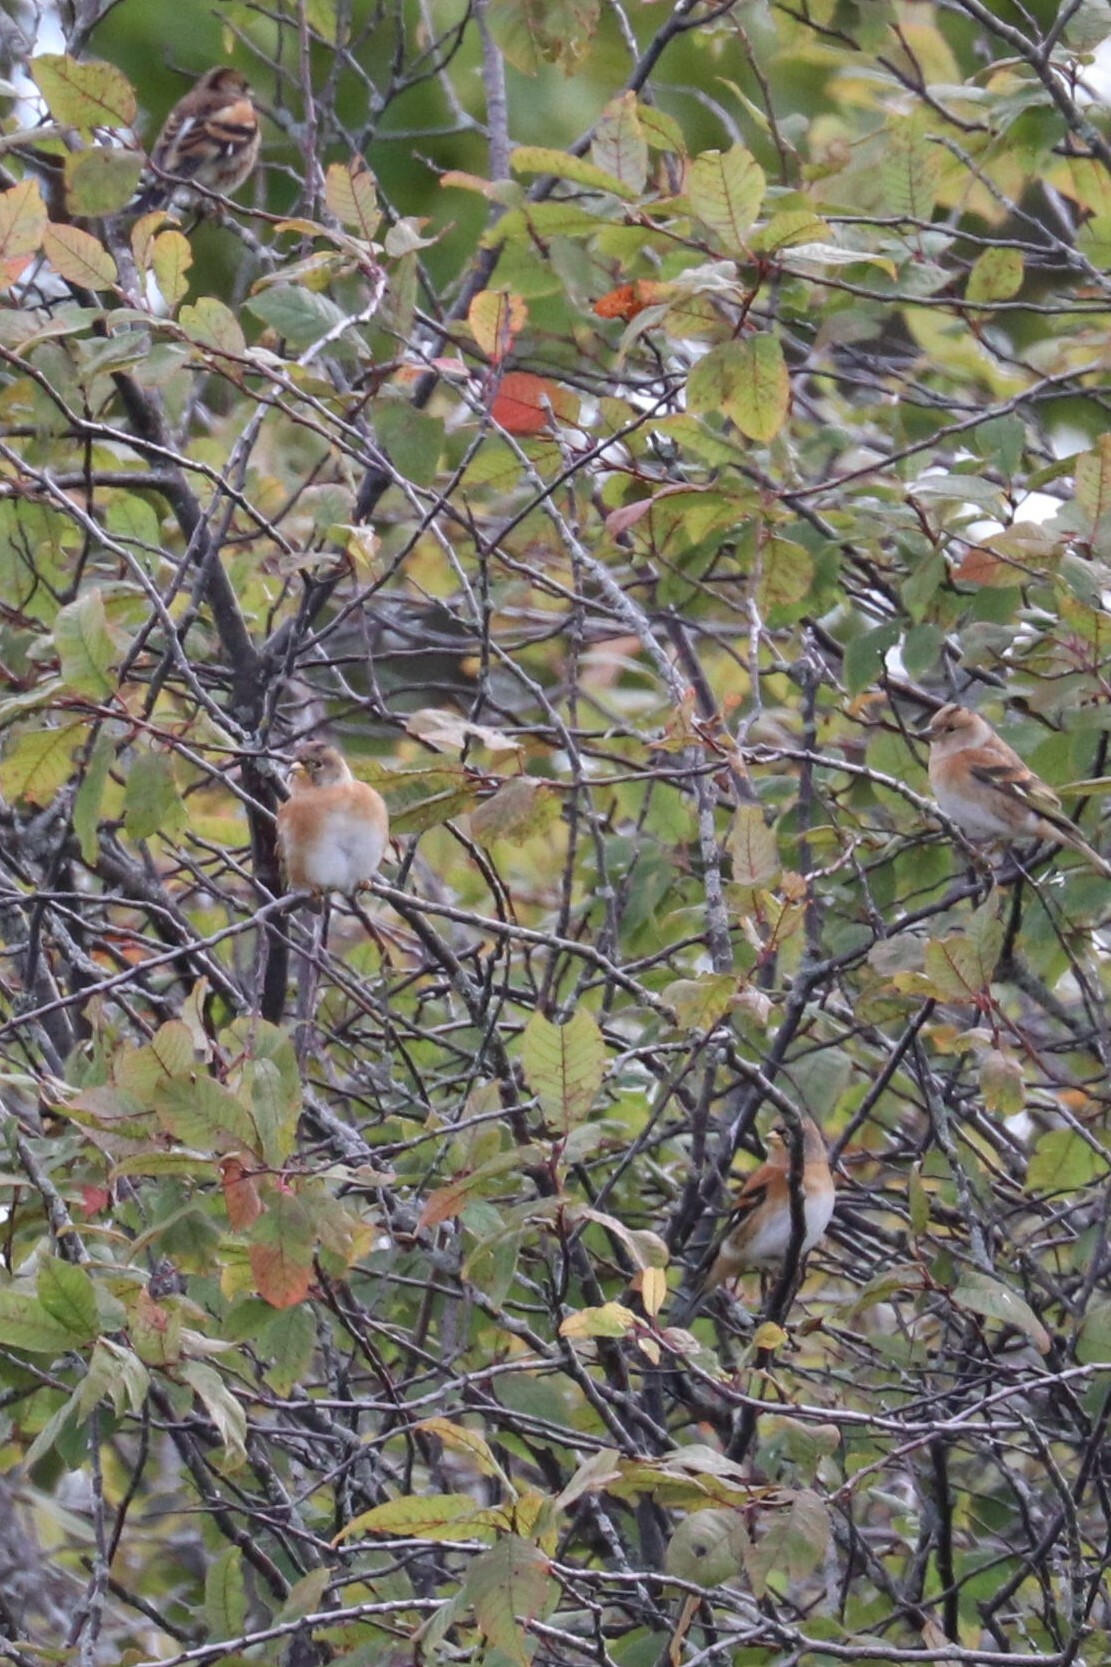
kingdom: Animalia
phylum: Chordata
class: Aves
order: Passeriformes
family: Fringillidae
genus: Fringilla
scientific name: Fringilla montifringilla
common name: Brambling
